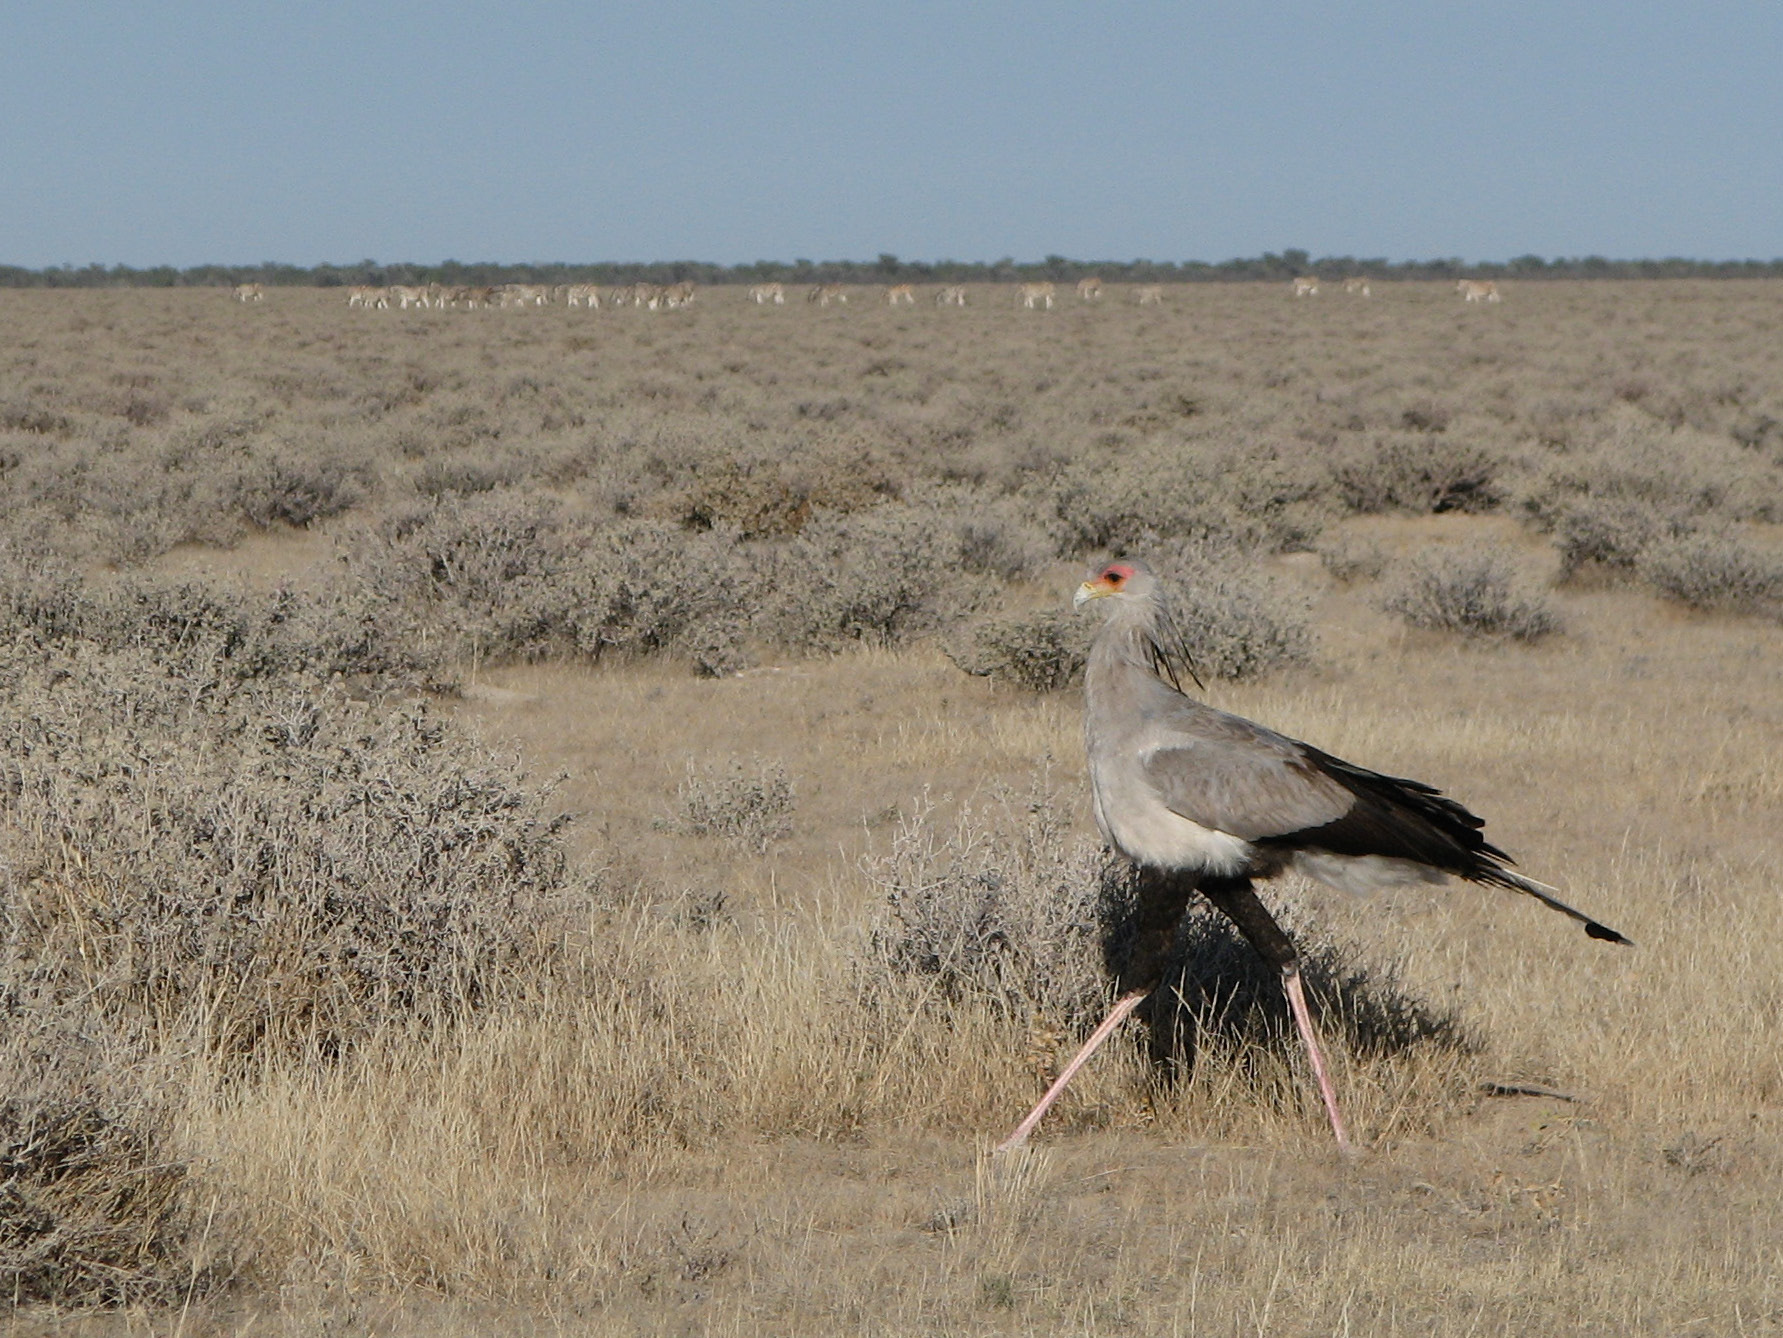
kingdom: Animalia
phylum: Chordata
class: Aves
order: Accipitriformes
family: Sagittariidae
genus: Sagittarius
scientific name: Sagittarius serpentarius
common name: Secretarybird
